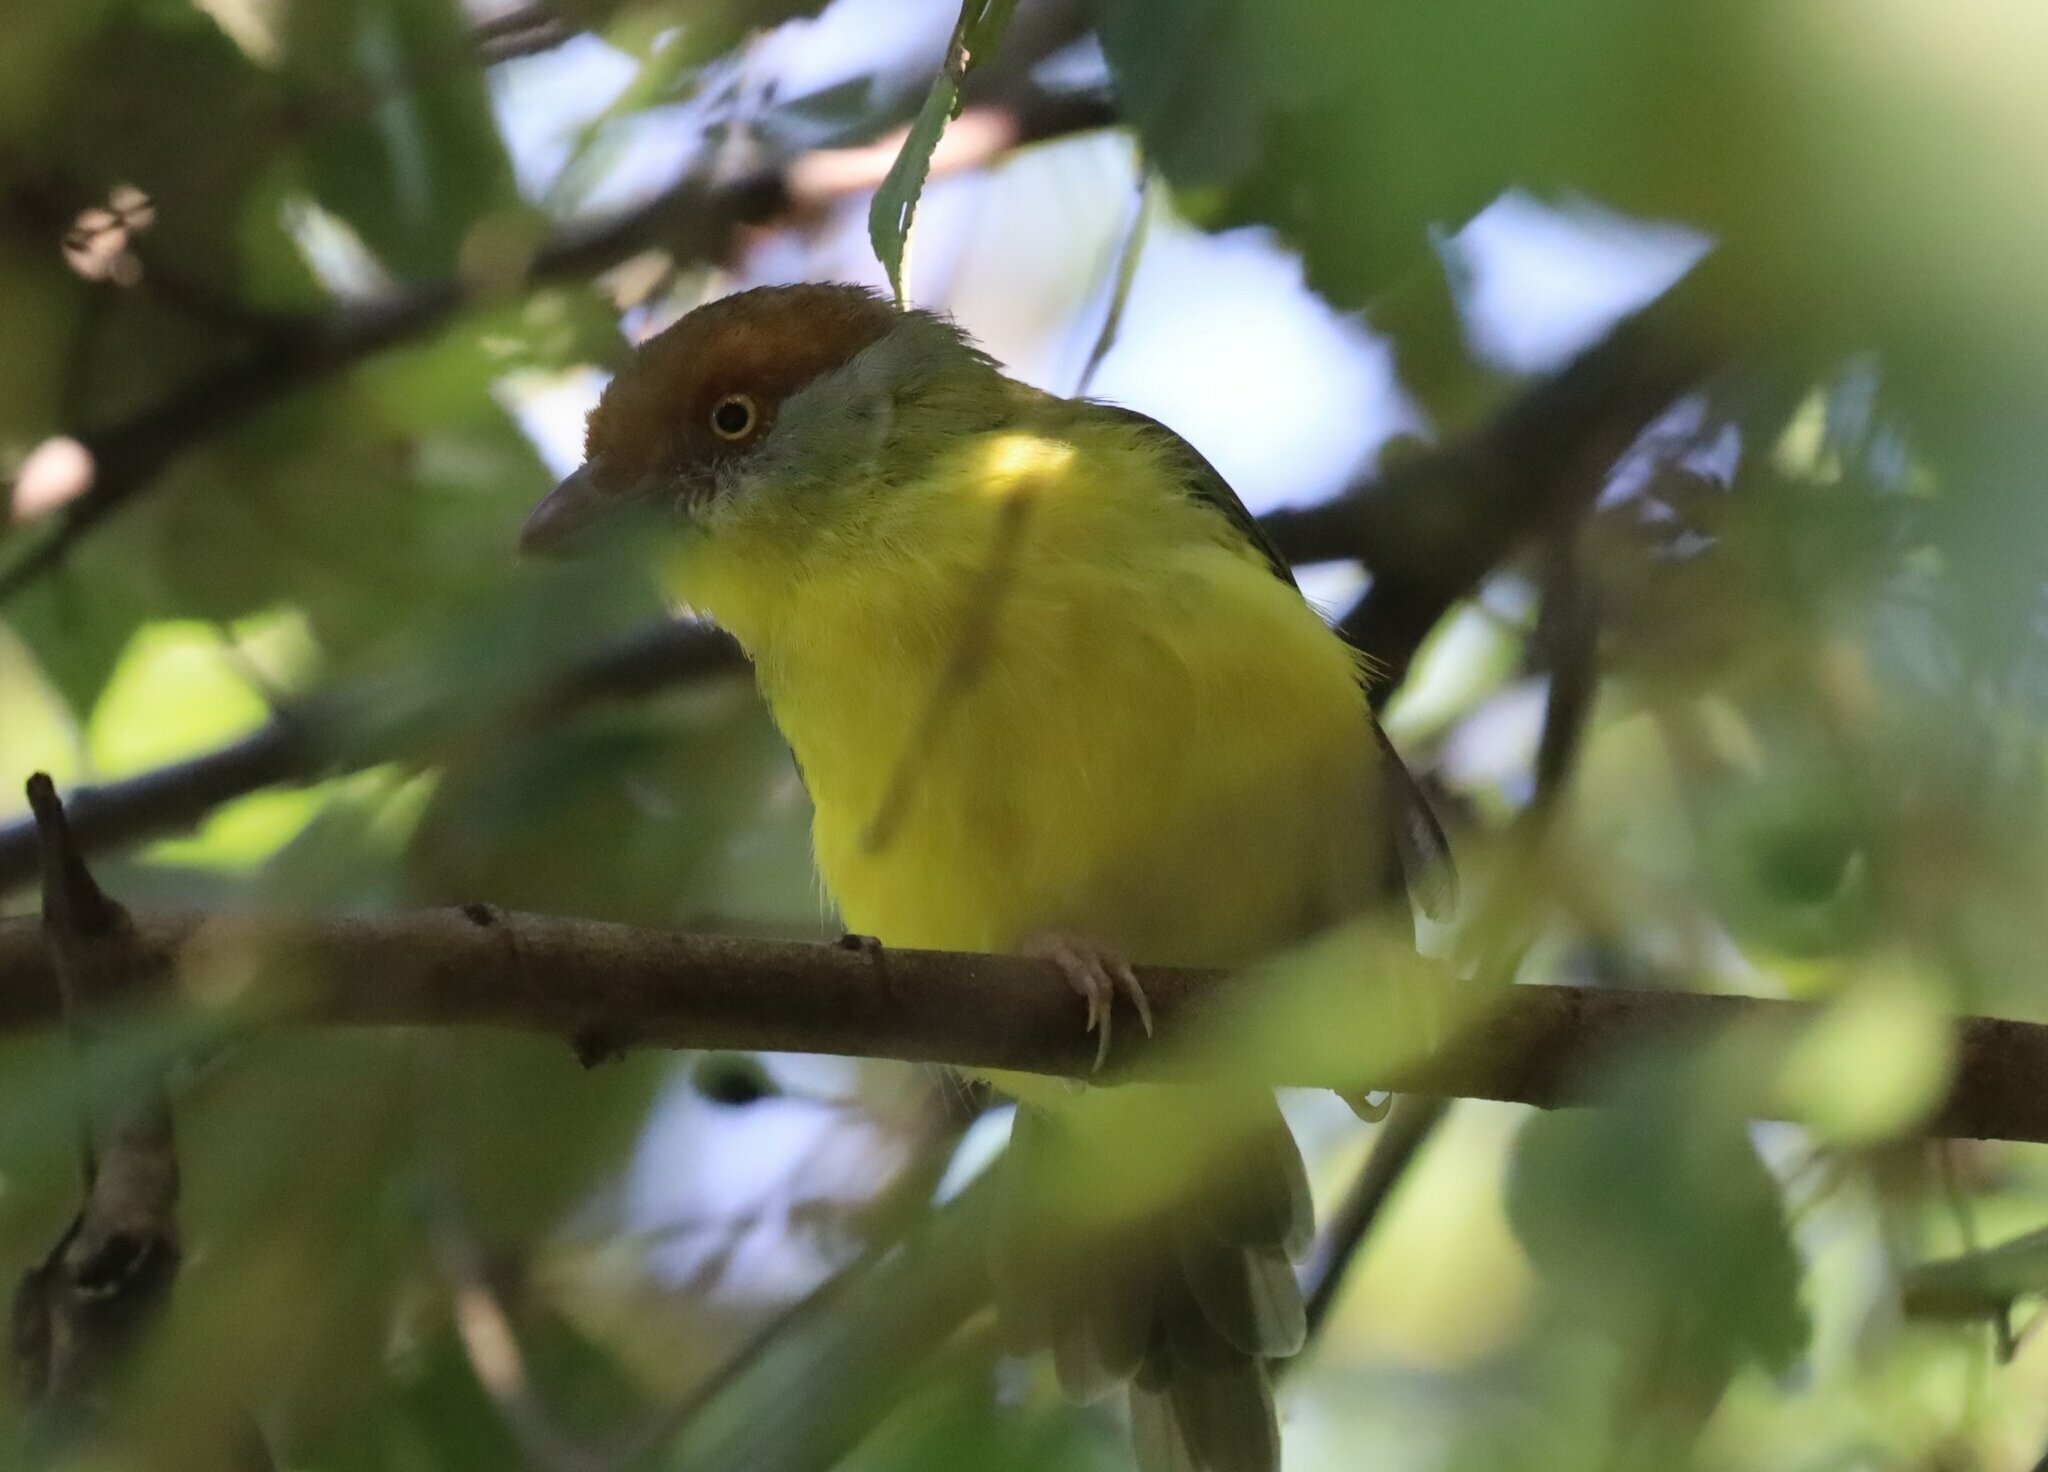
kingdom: Animalia
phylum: Chordata
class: Aves
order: Passeriformes
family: Vireonidae
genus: Cyclarhis
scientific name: Cyclarhis gujanensis
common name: Rufous-browed peppershrike
